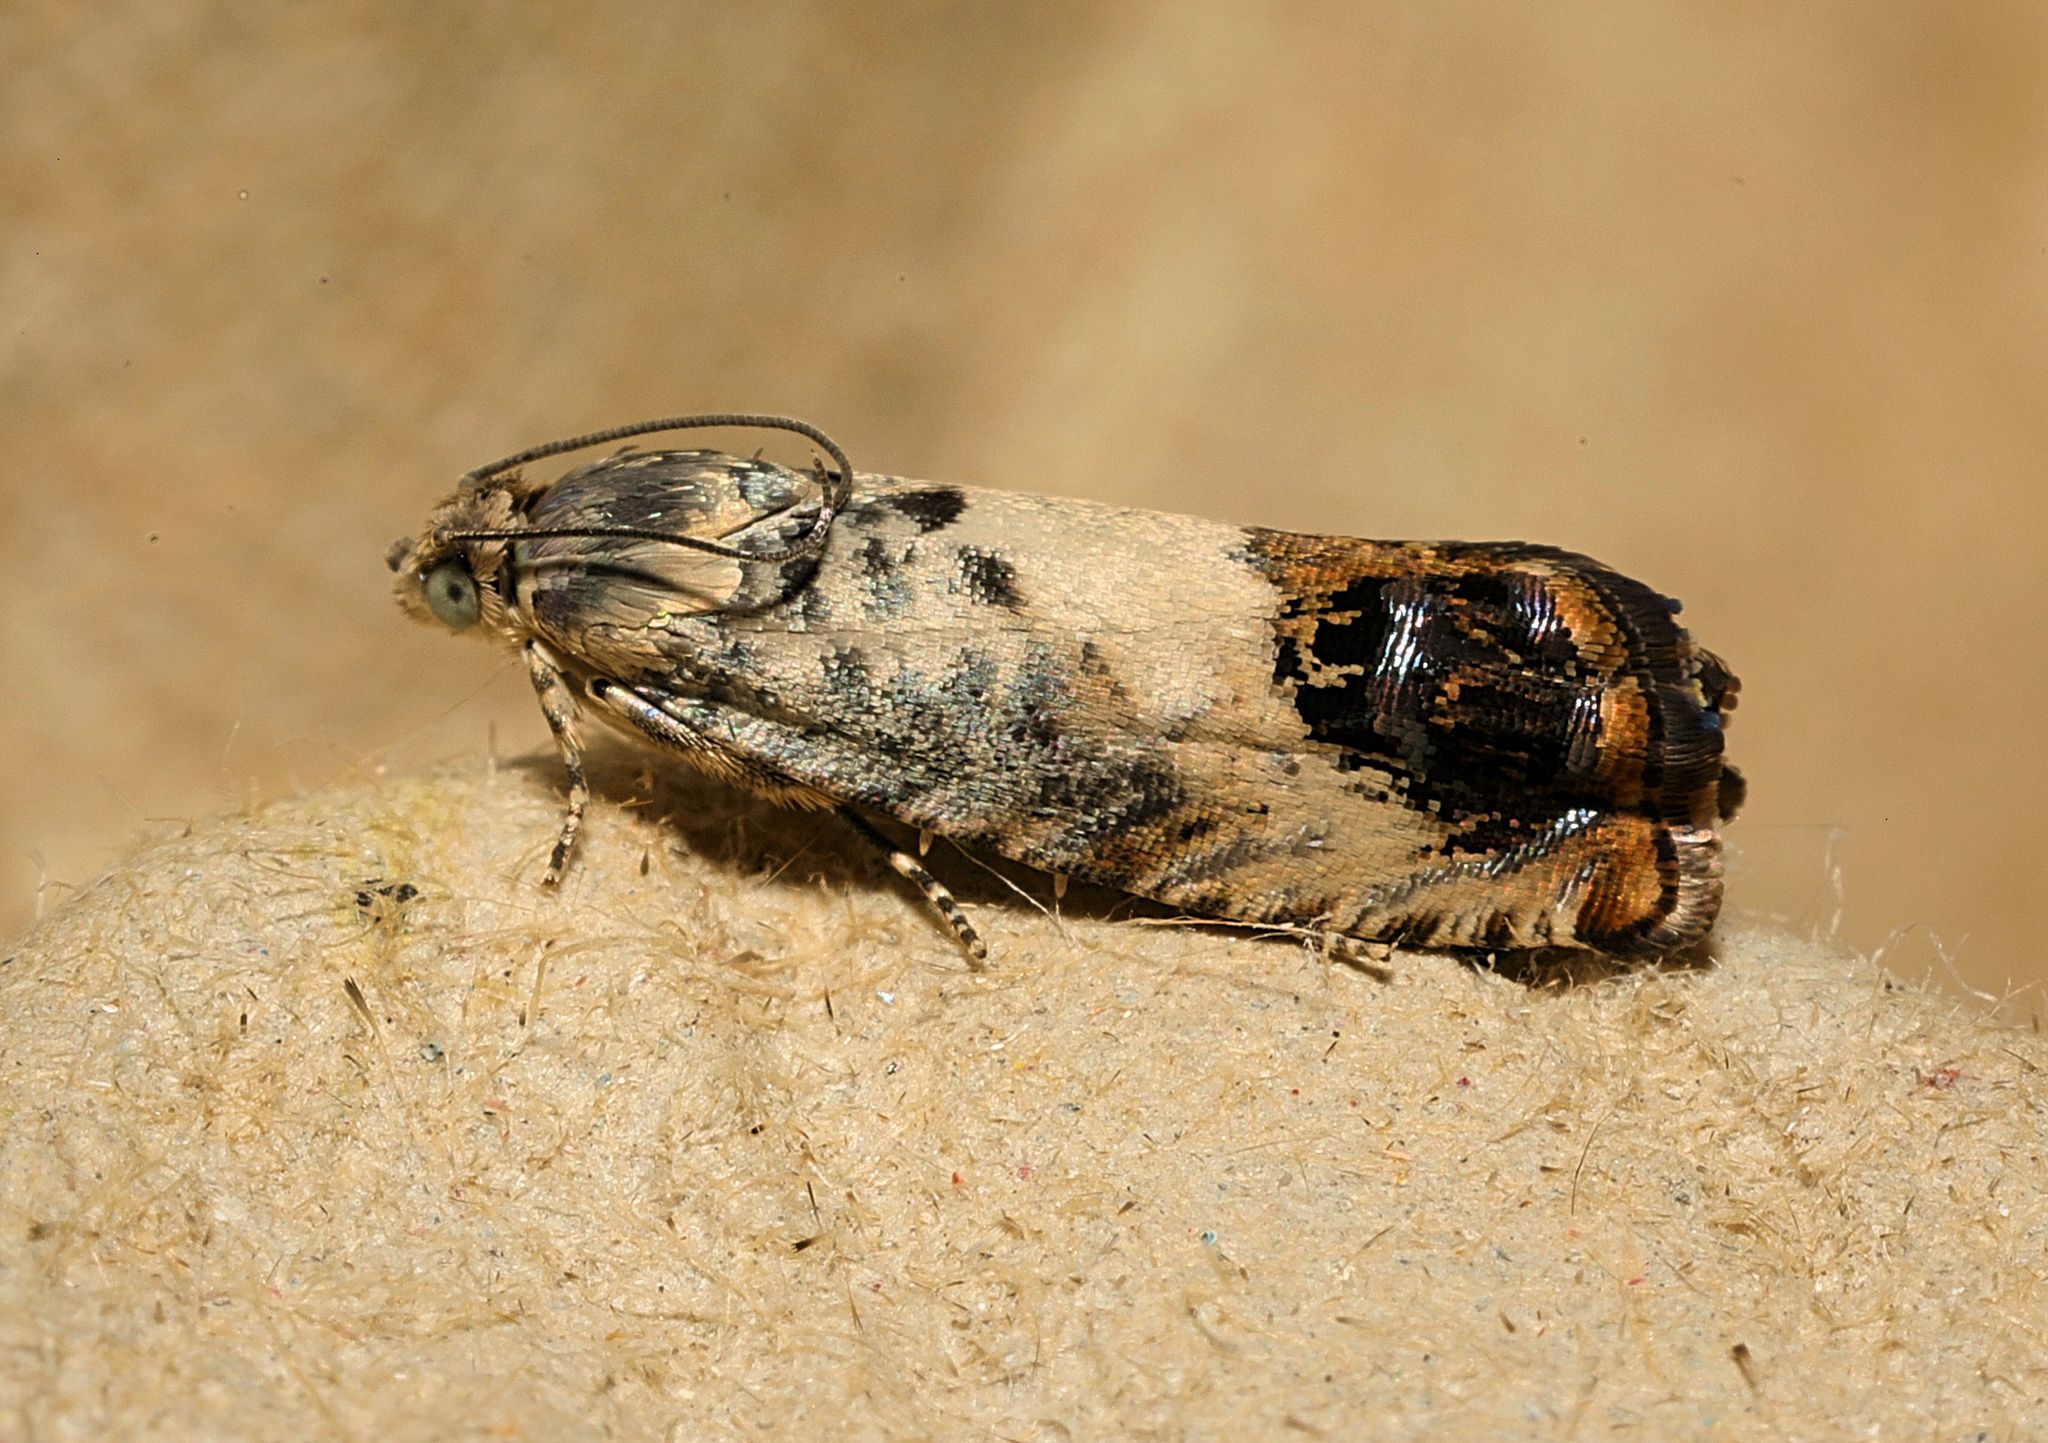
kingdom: Animalia
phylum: Arthropoda
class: Insecta
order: Lepidoptera
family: Tortricidae
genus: Pammene
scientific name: Pammene fasciana
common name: Acorn piercer
